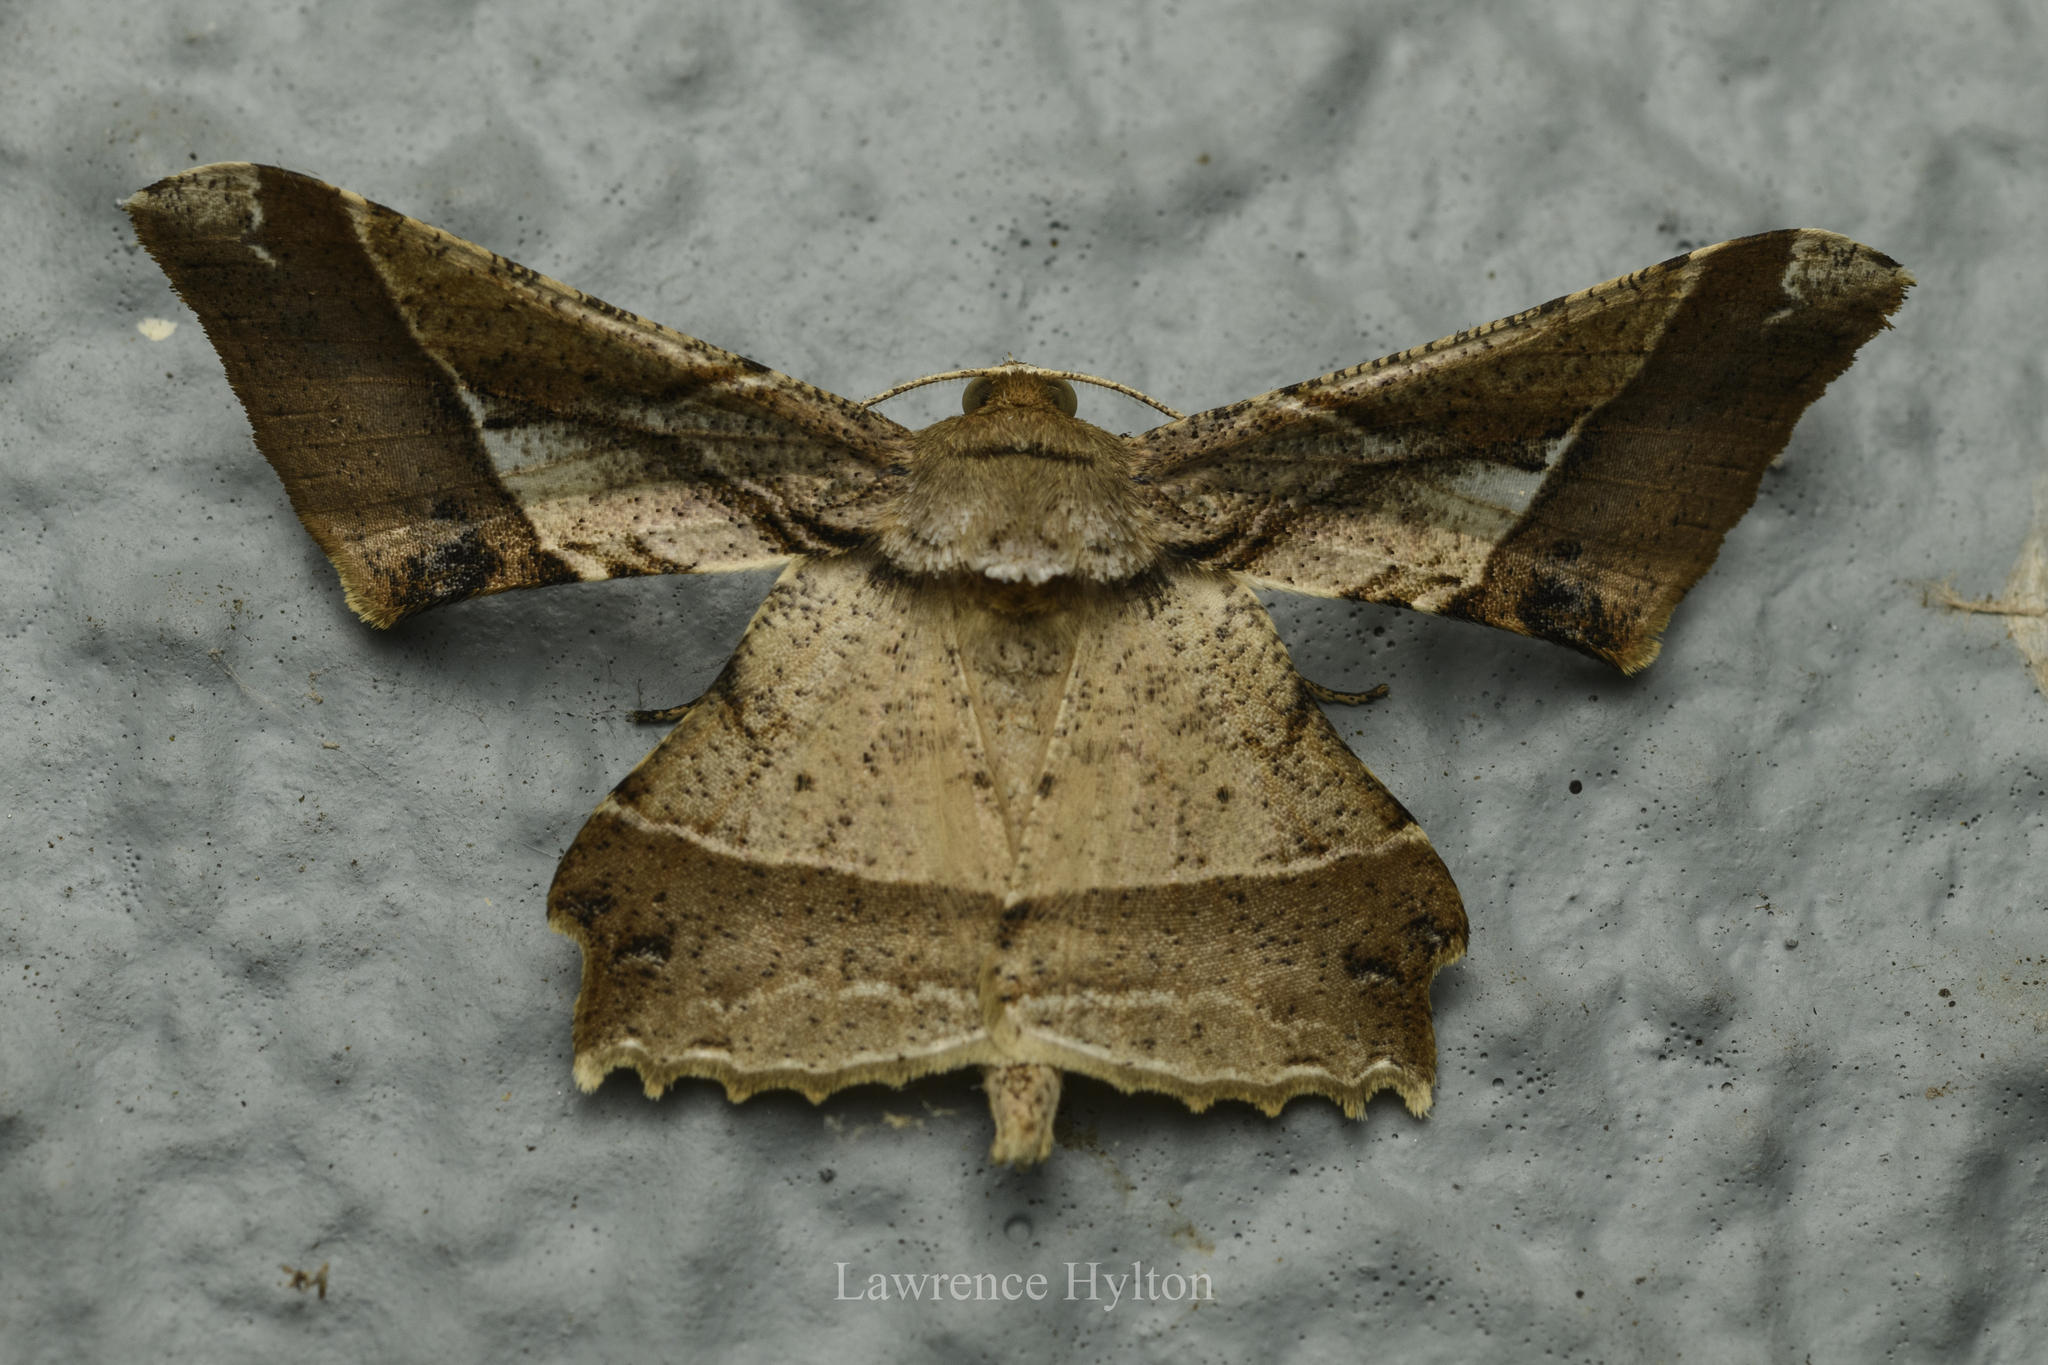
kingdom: Animalia
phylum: Arthropoda
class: Insecta
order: Lepidoptera
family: Geometridae
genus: Krananda
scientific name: Krananda latimarginaria
